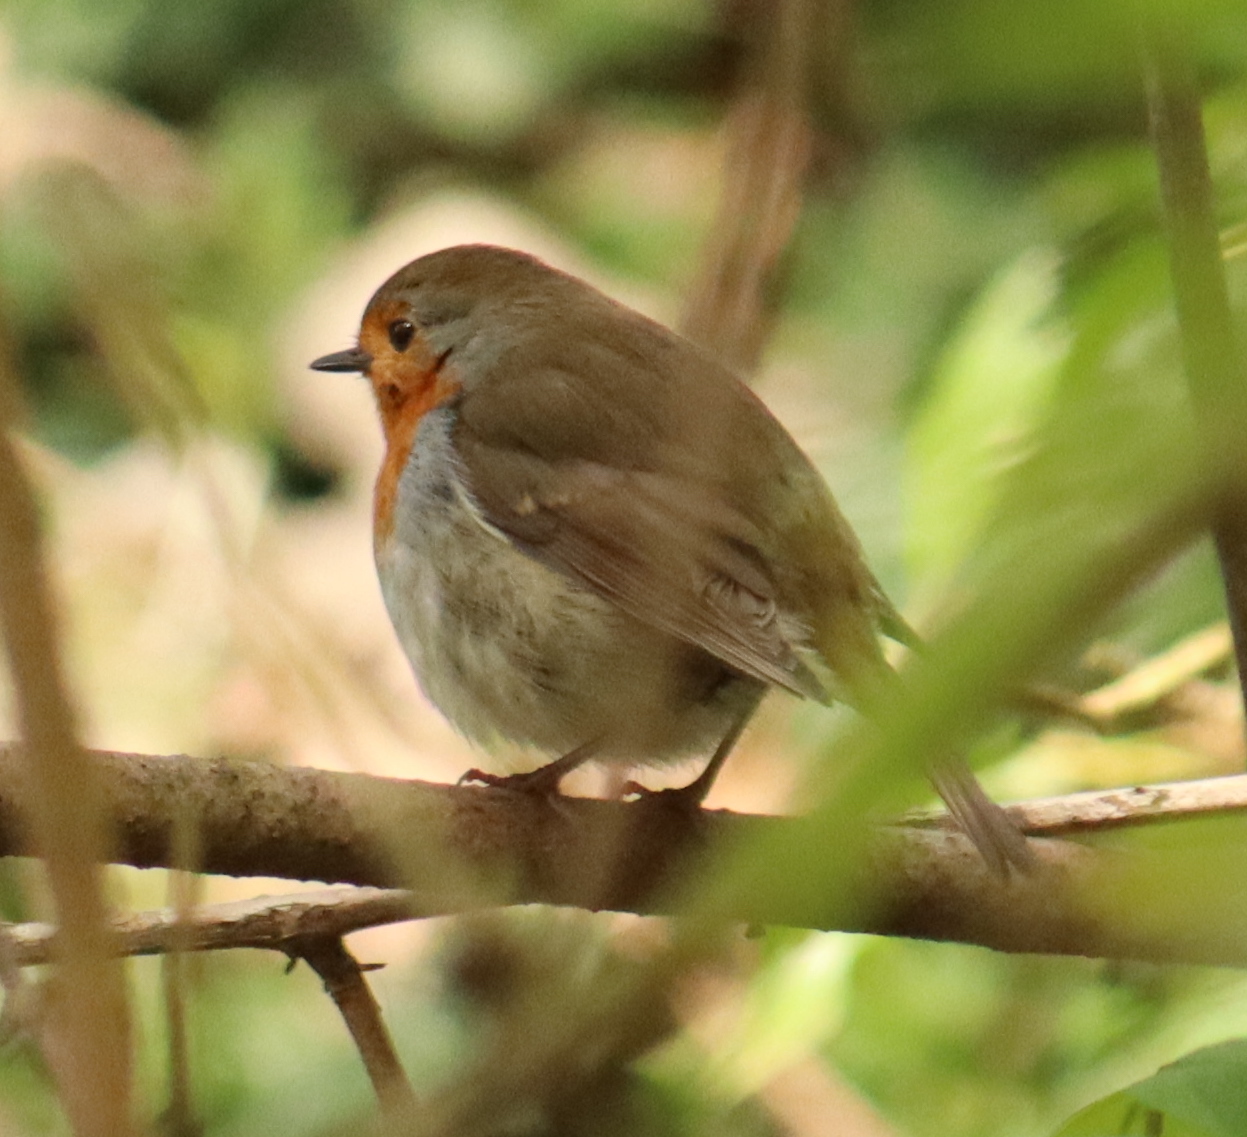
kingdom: Animalia
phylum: Chordata
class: Aves
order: Passeriformes
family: Muscicapidae
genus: Erithacus
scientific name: Erithacus rubecula
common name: European robin
